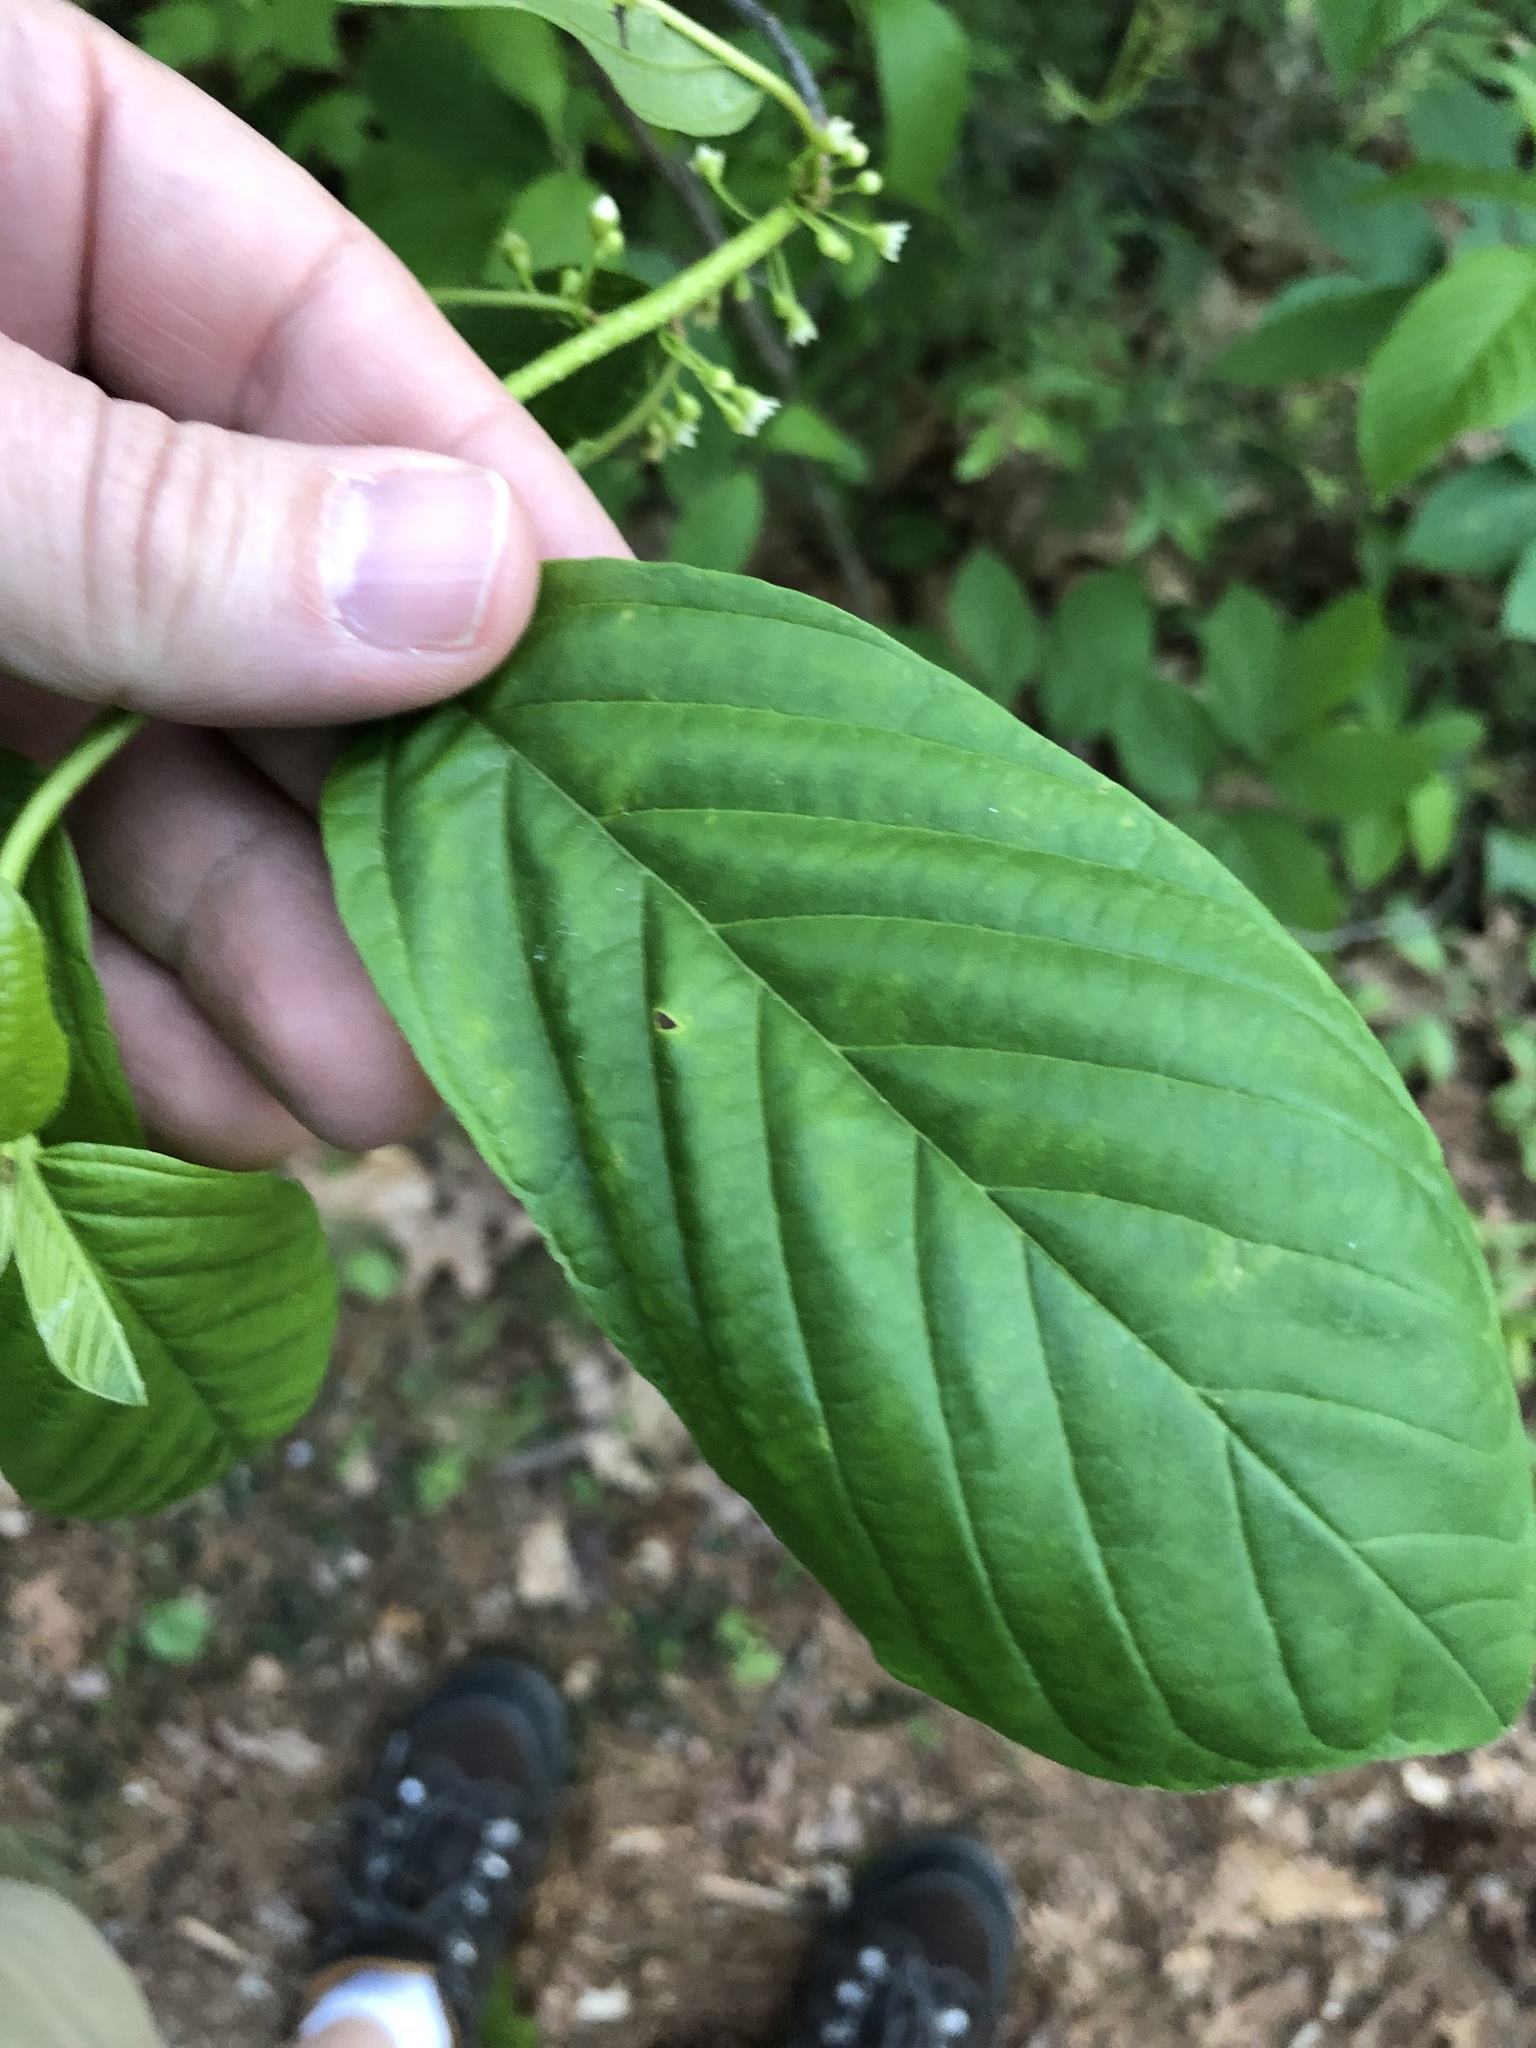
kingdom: Plantae
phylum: Tracheophyta
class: Magnoliopsida
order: Rosales
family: Rhamnaceae
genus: Frangula
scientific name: Frangula alnus
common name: Alder buckthorn
